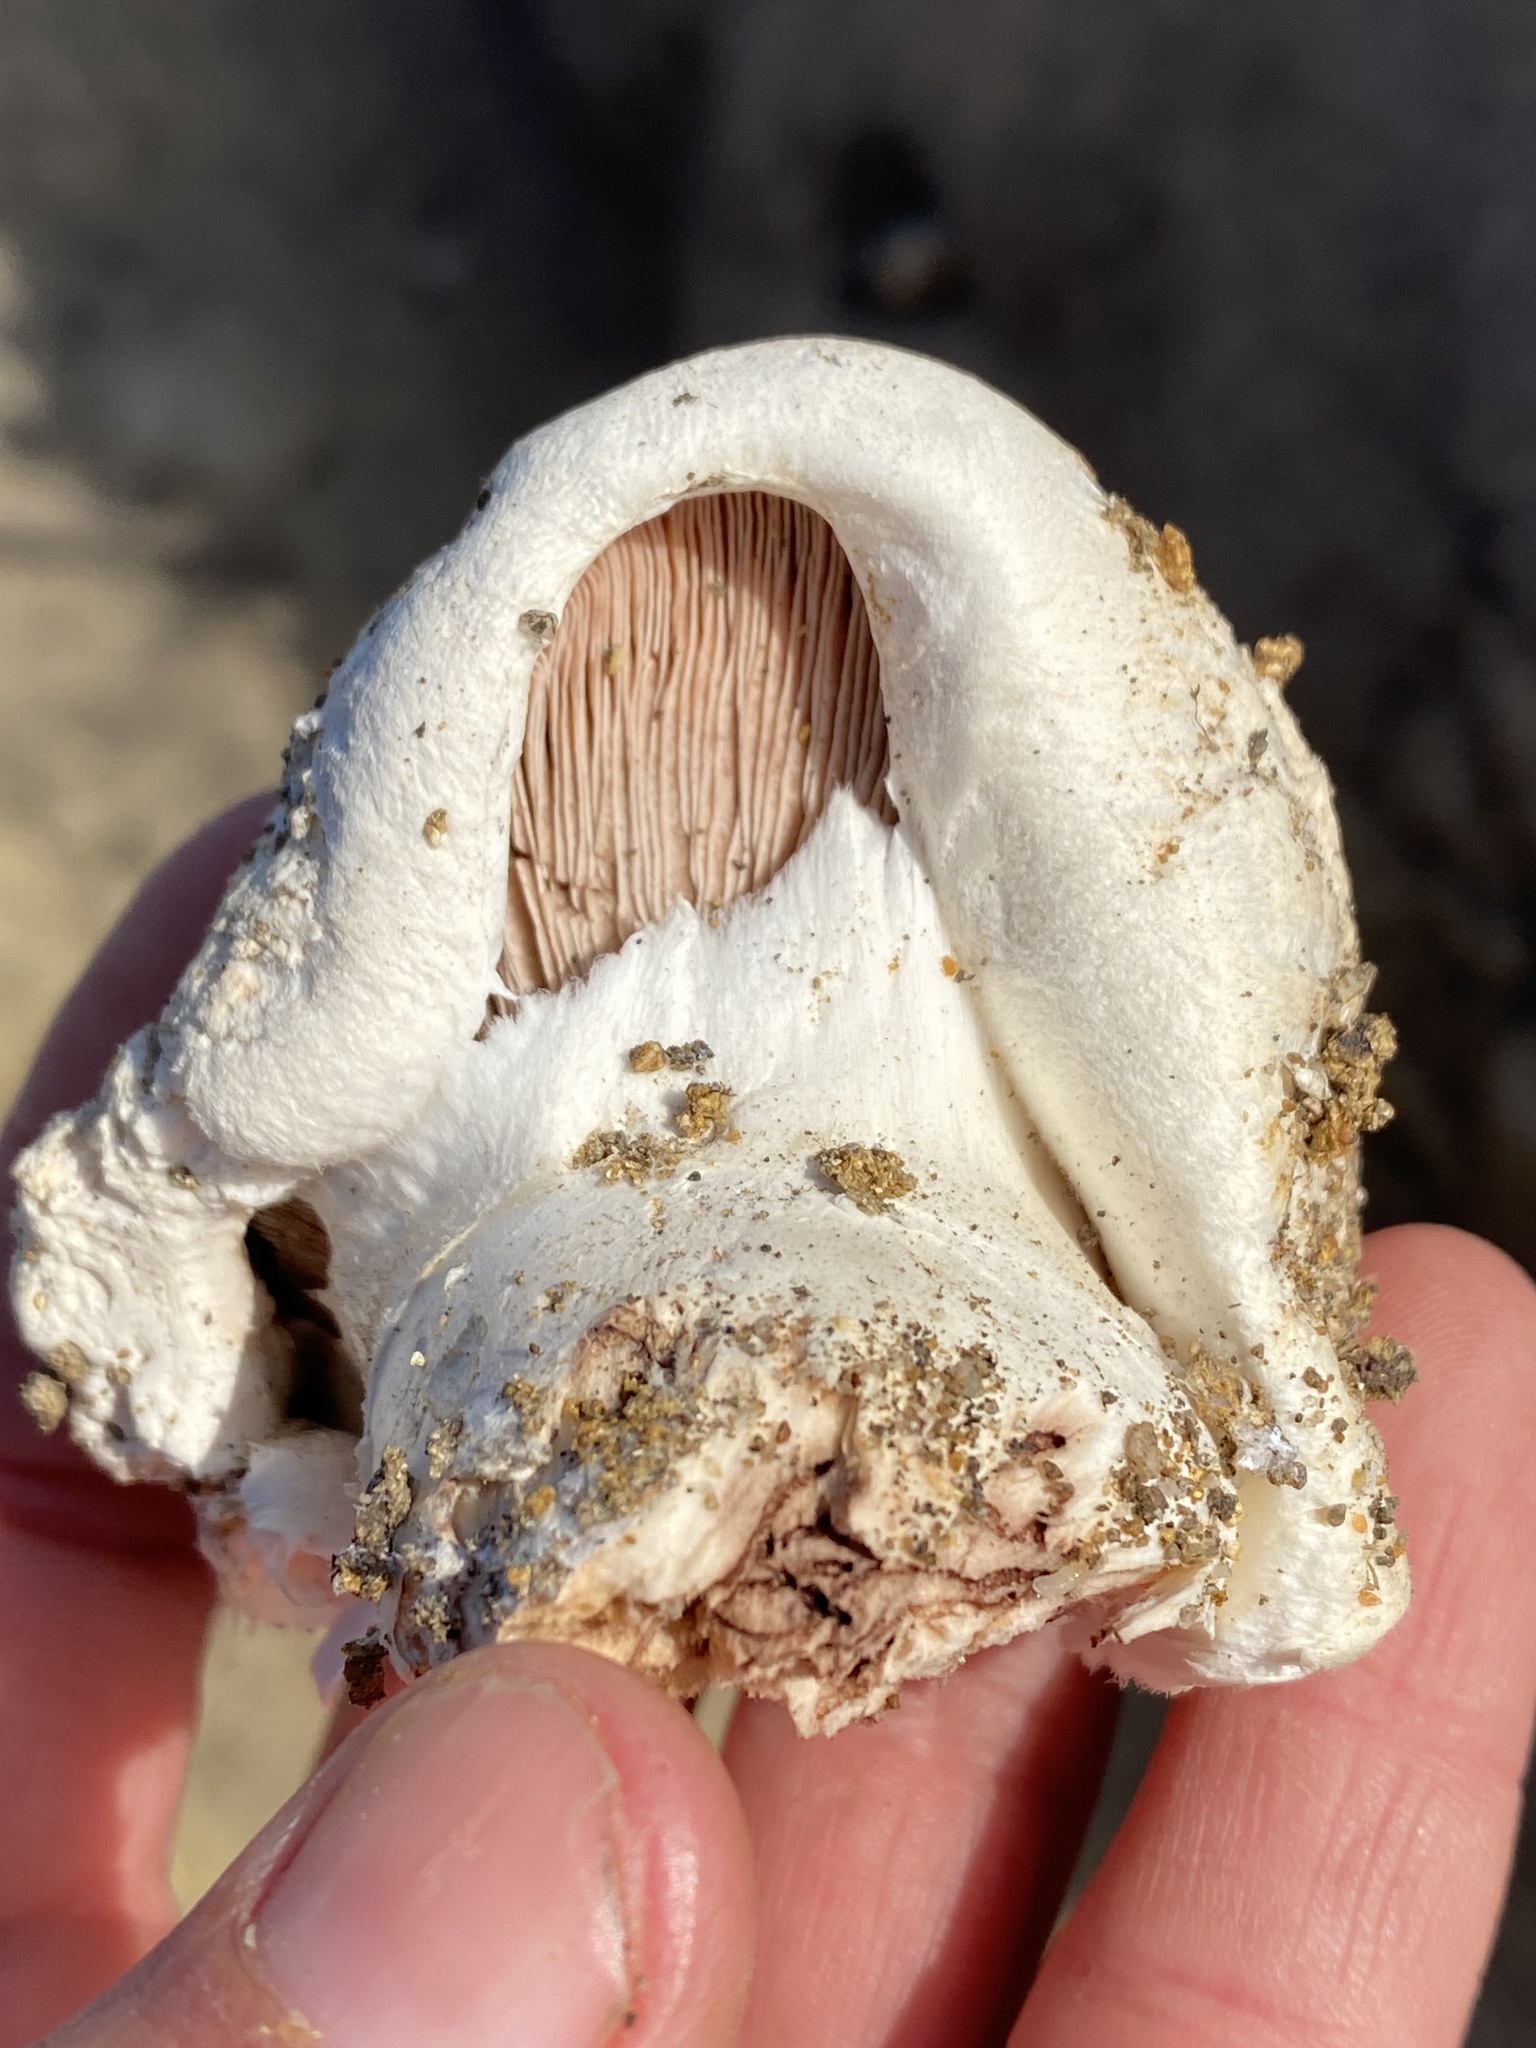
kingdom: Fungi
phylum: Basidiomycota
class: Agaricomycetes
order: Agaricales
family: Agaricaceae
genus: Agaricus
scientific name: Agaricus bernardii
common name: Salty mushroom
